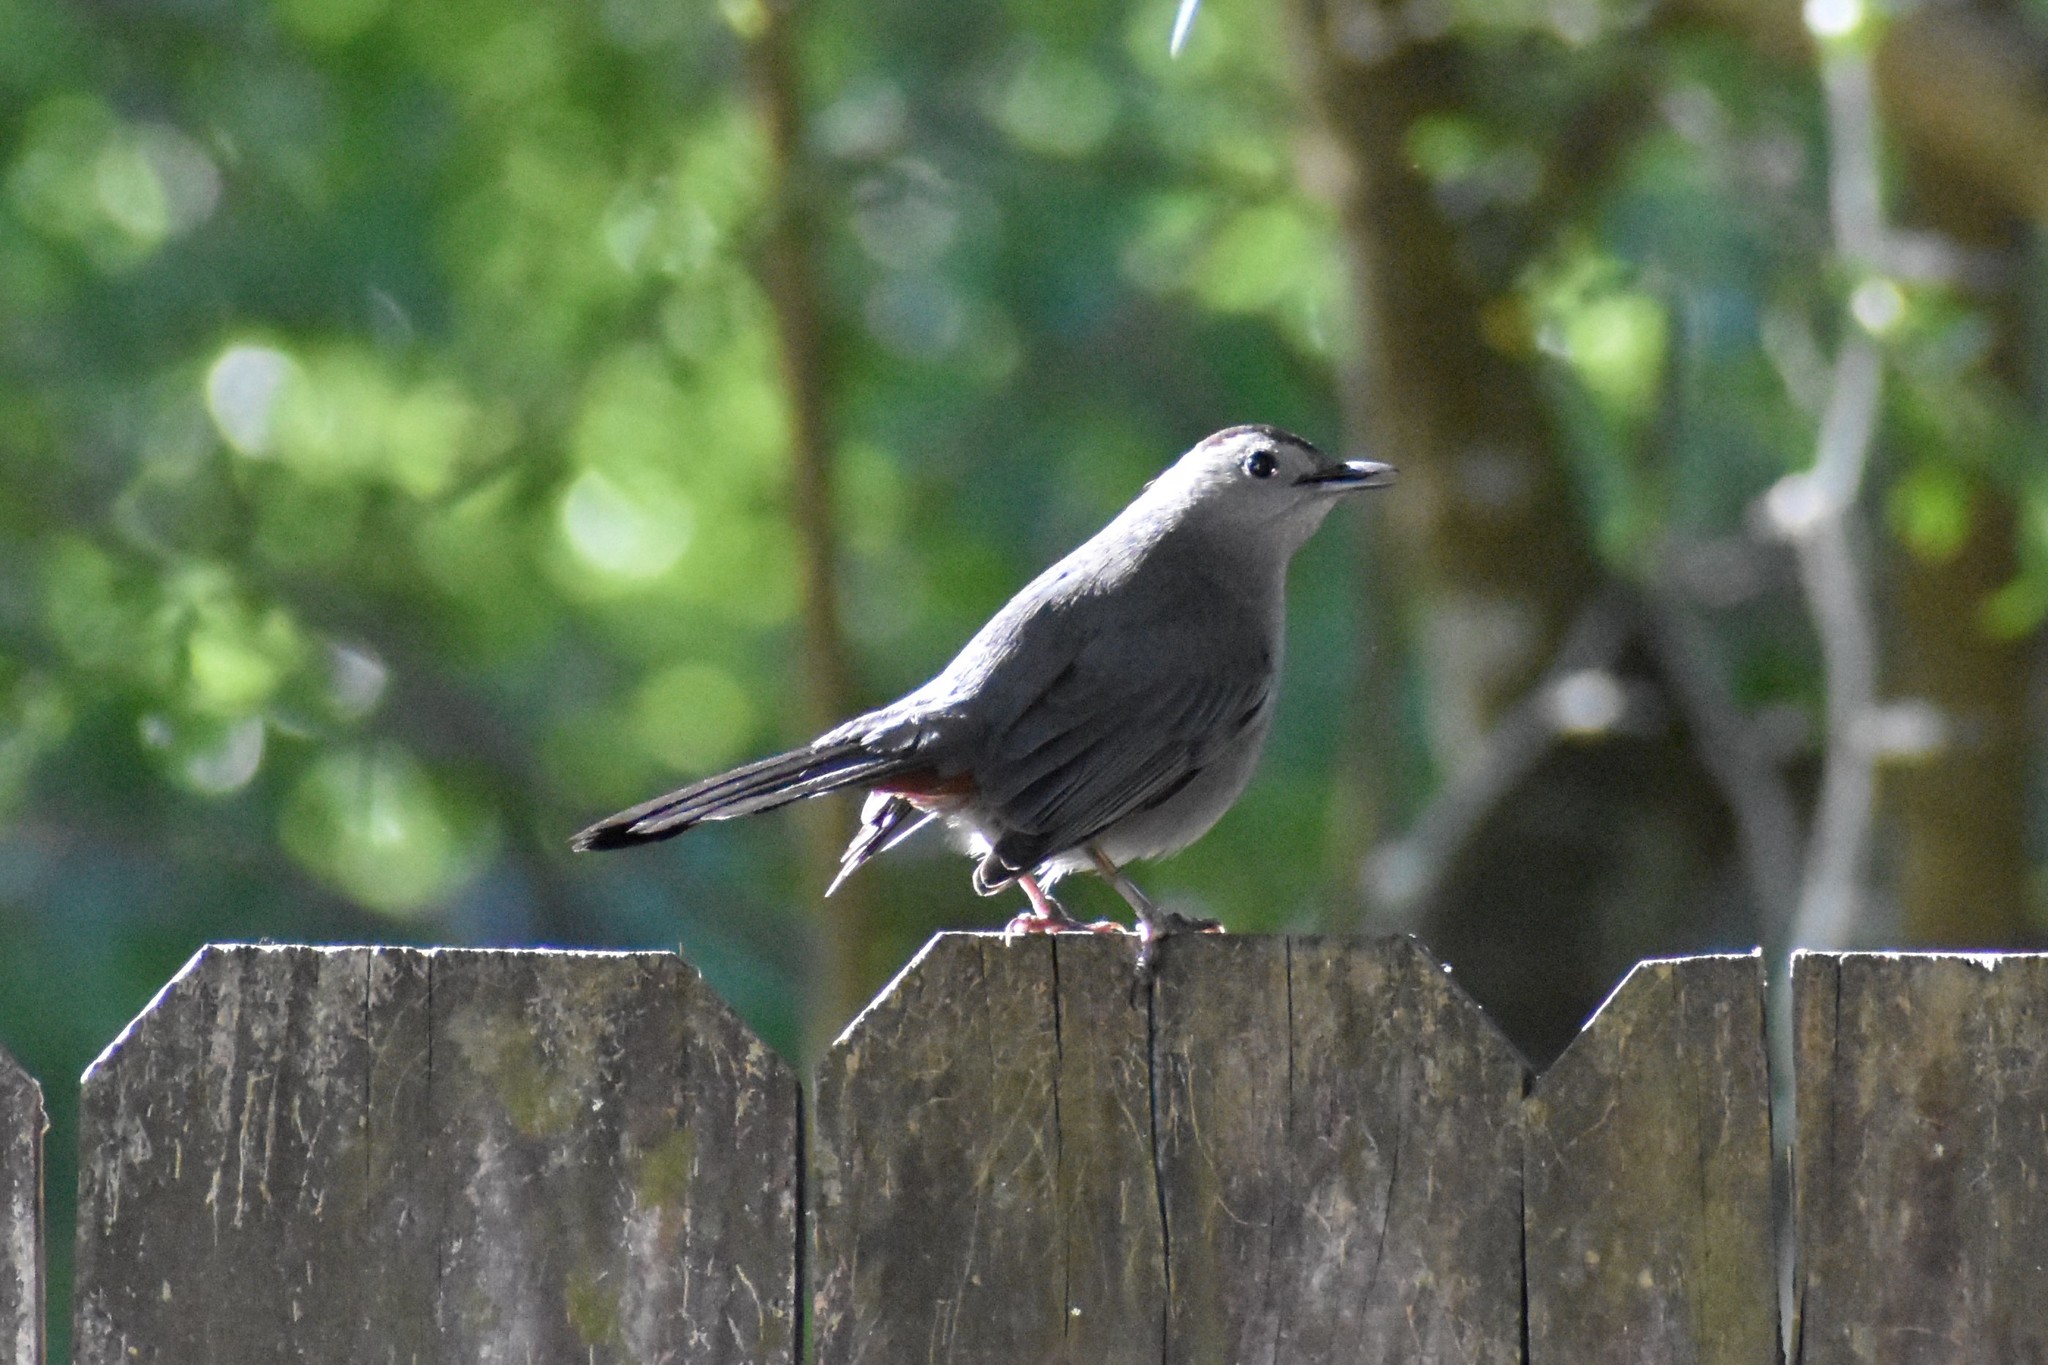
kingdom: Animalia
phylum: Chordata
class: Aves
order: Passeriformes
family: Mimidae
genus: Dumetella
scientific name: Dumetella carolinensis
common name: Gray catbird
